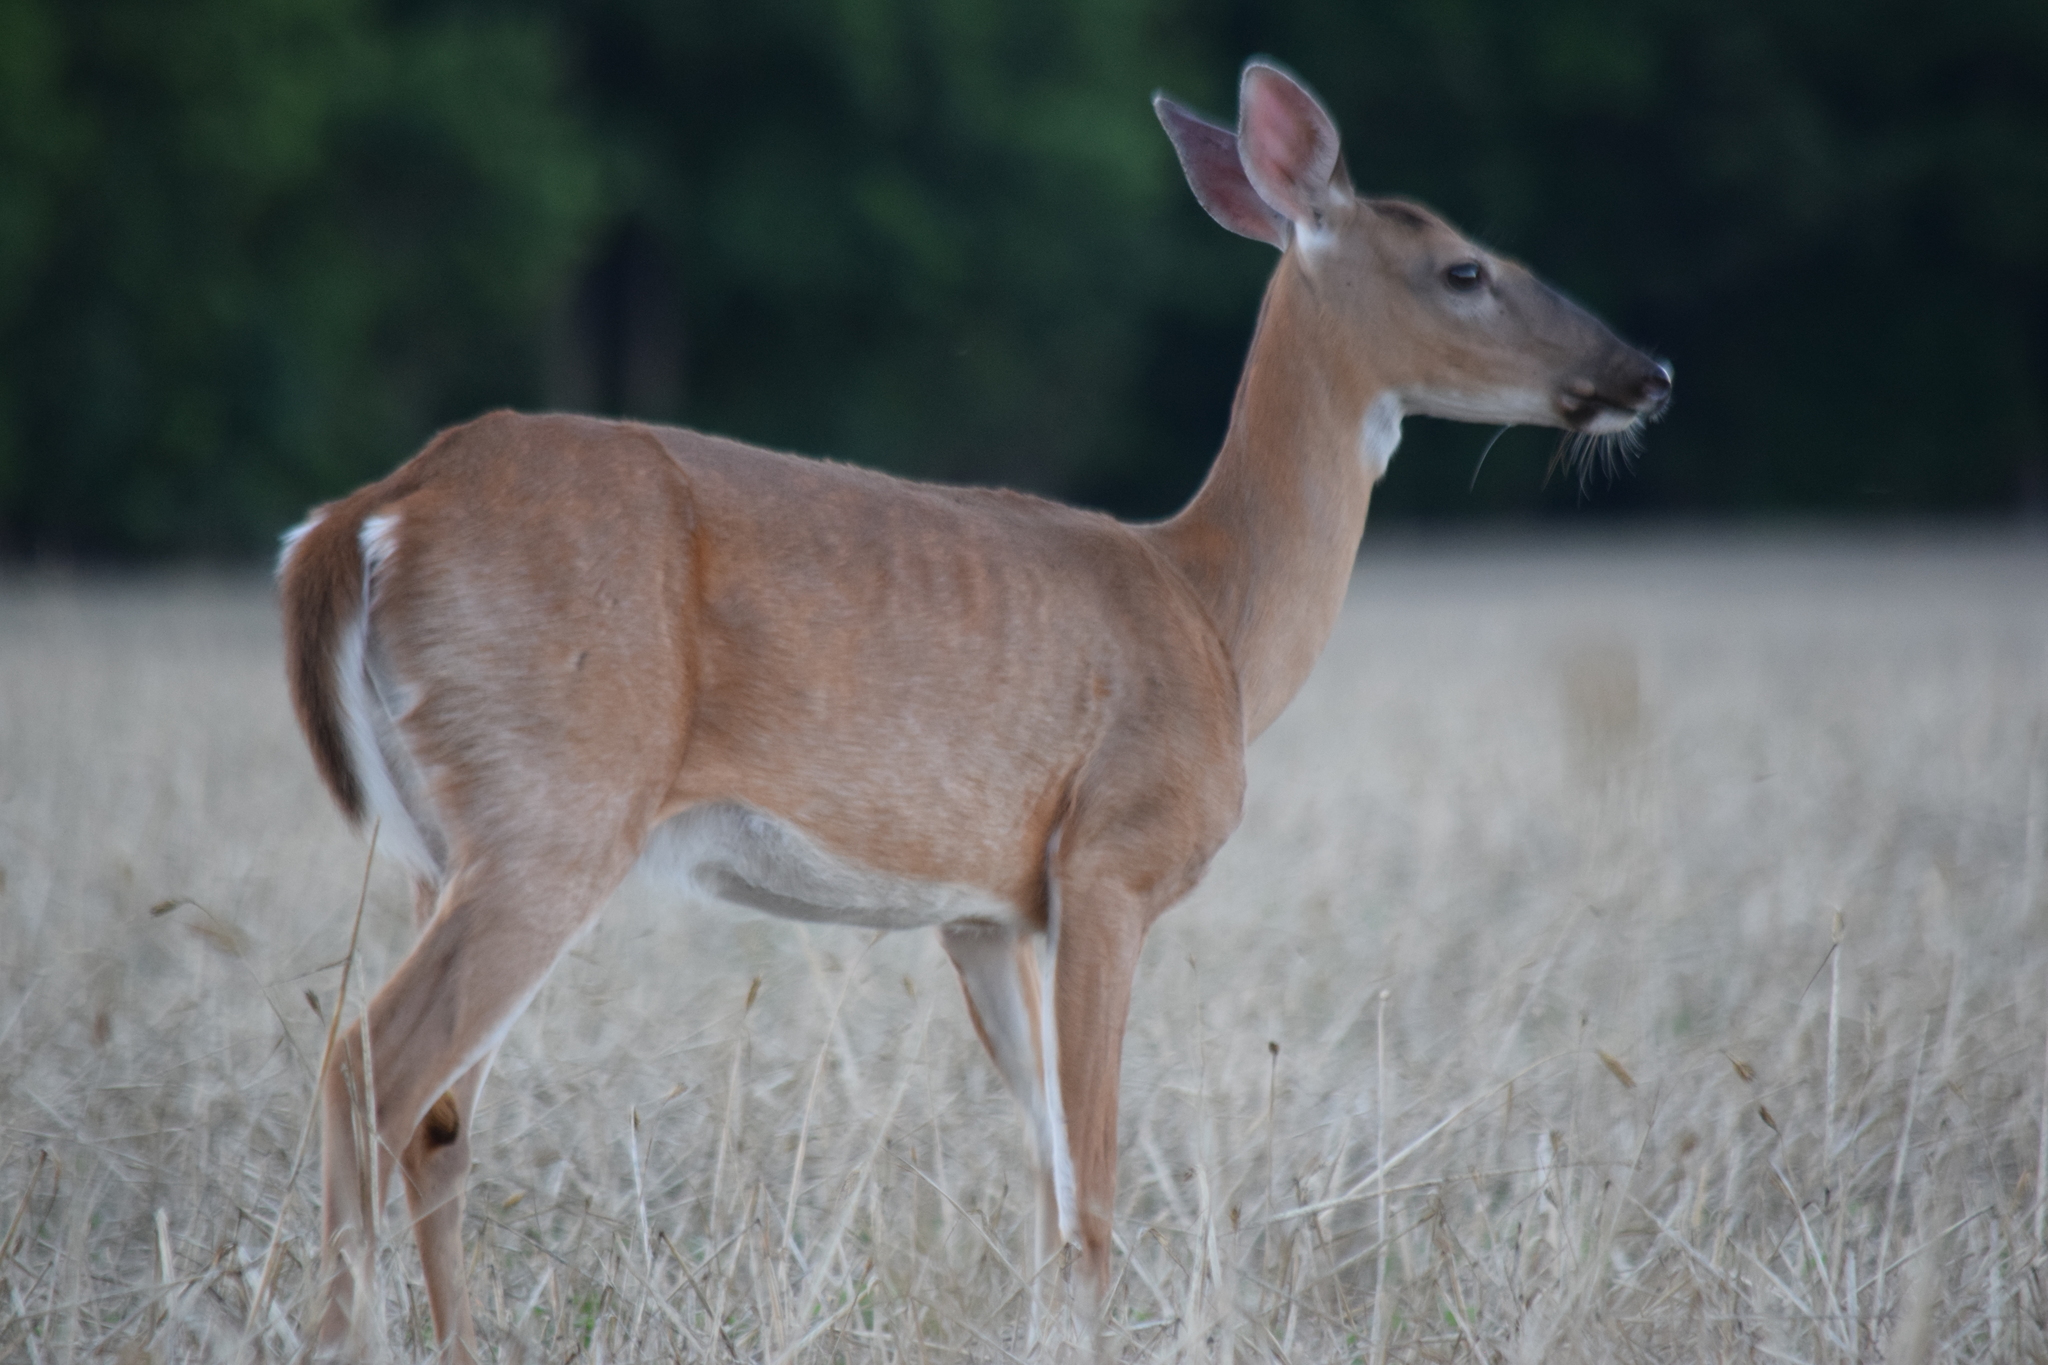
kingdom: Animalia
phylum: Chordata
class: Mammalia
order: Artiodactyla
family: Cervidae
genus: Odocoileus
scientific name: Odocoileus virginianus
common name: White-tailed deer
